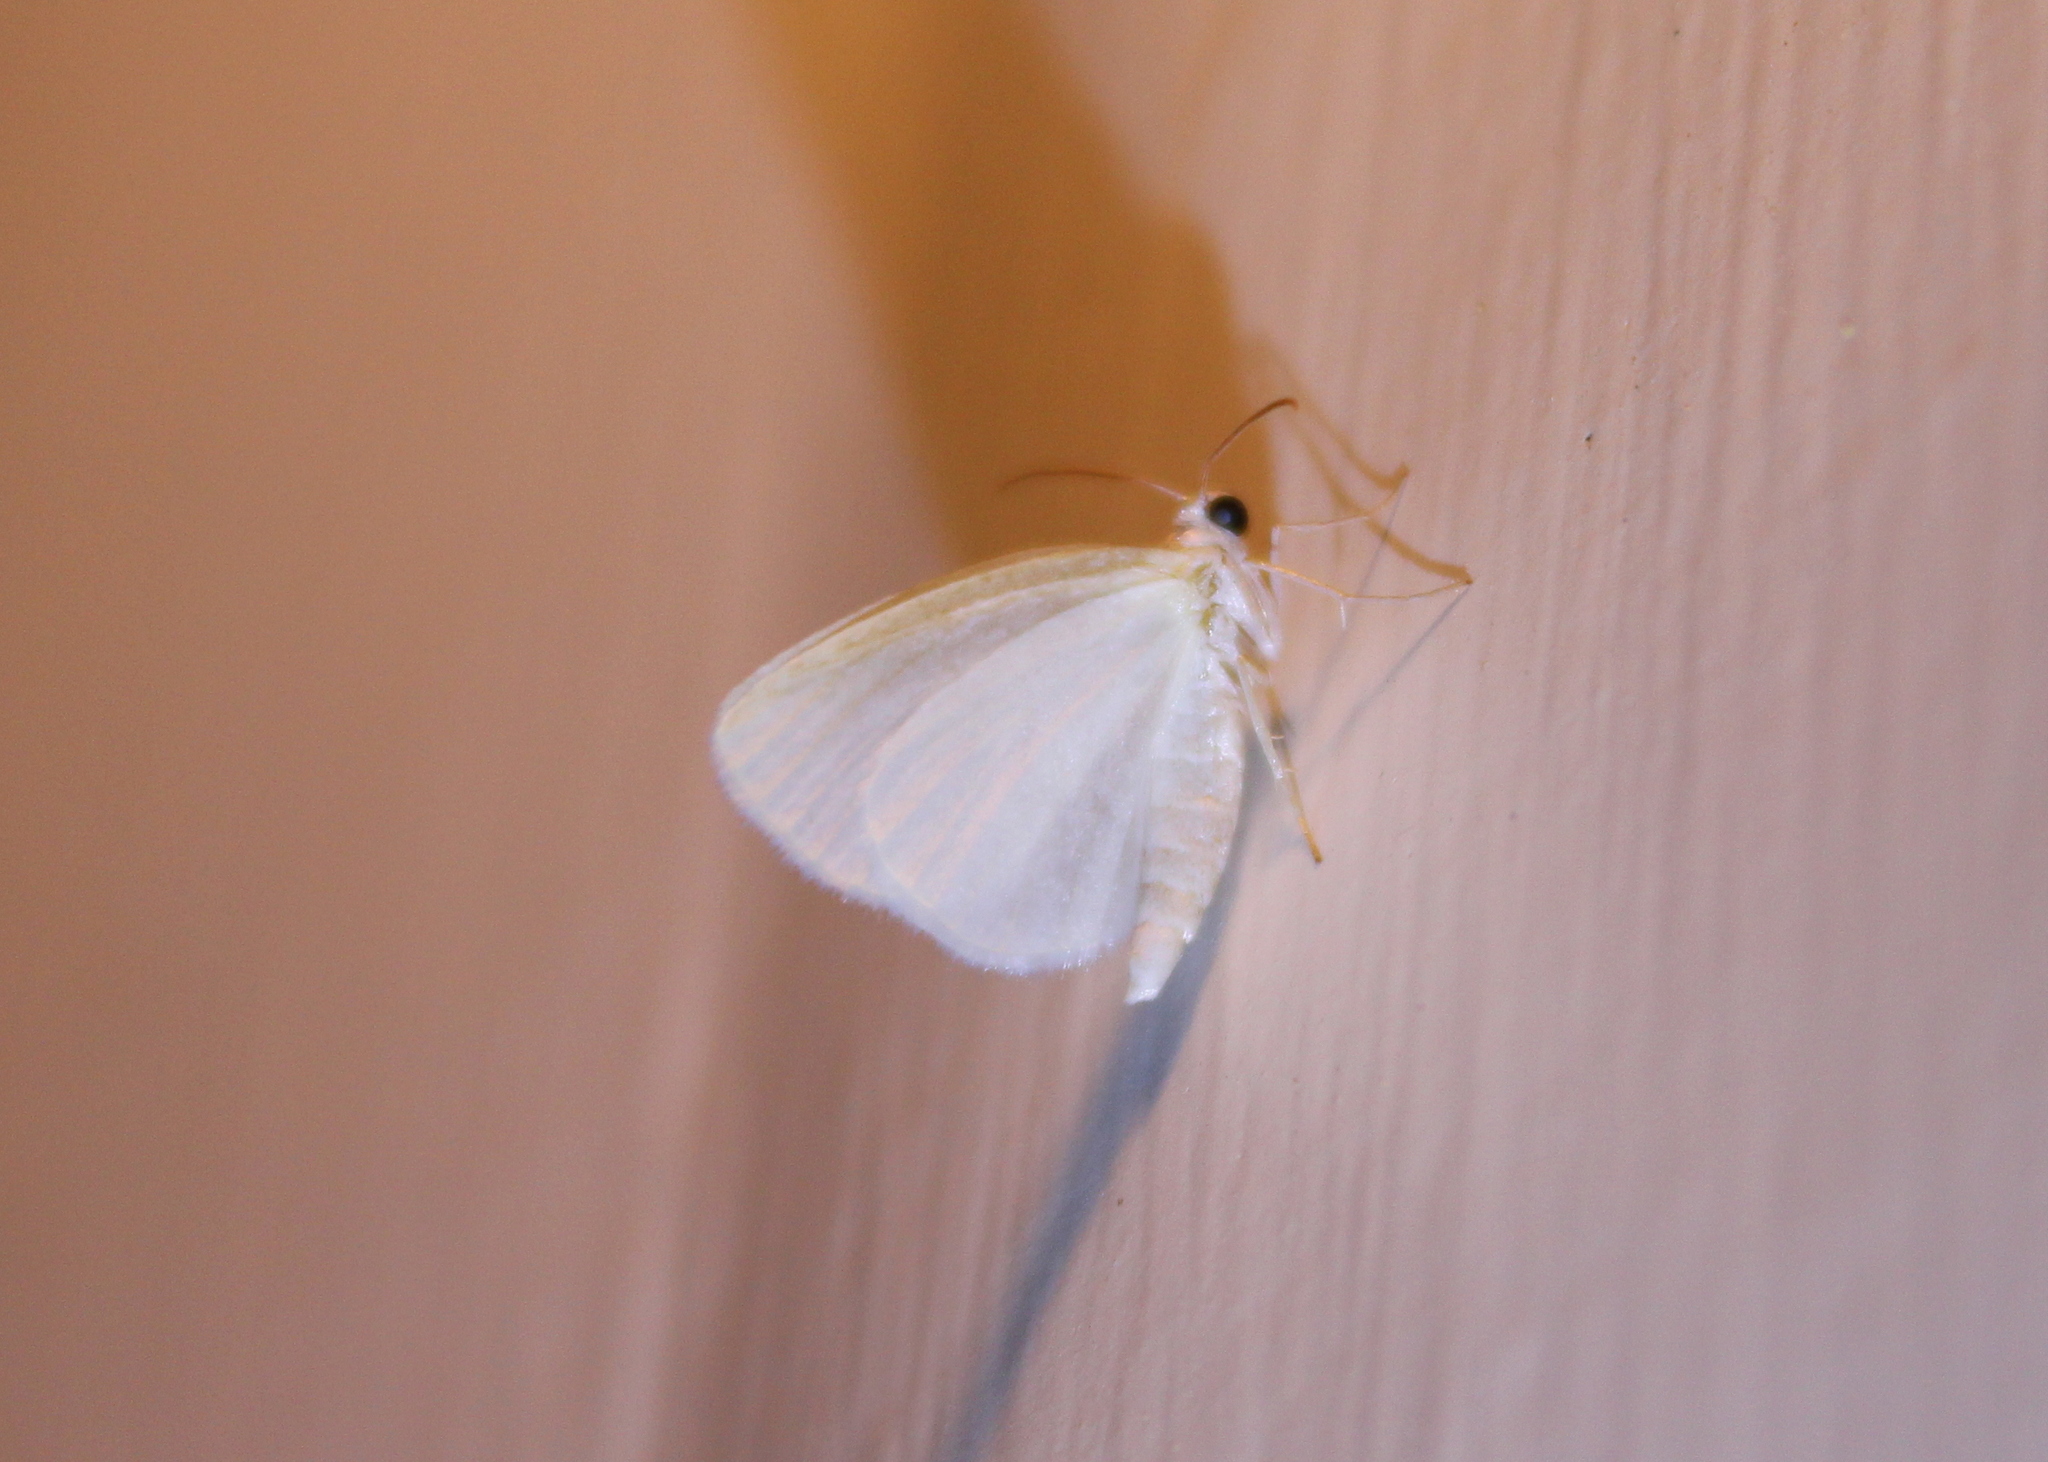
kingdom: Animalia
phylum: Arthropoda
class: Insecta
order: Lepidoptera
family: Geometridae
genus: Lomographa
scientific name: Lomographa vestaliata
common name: White spring moth
